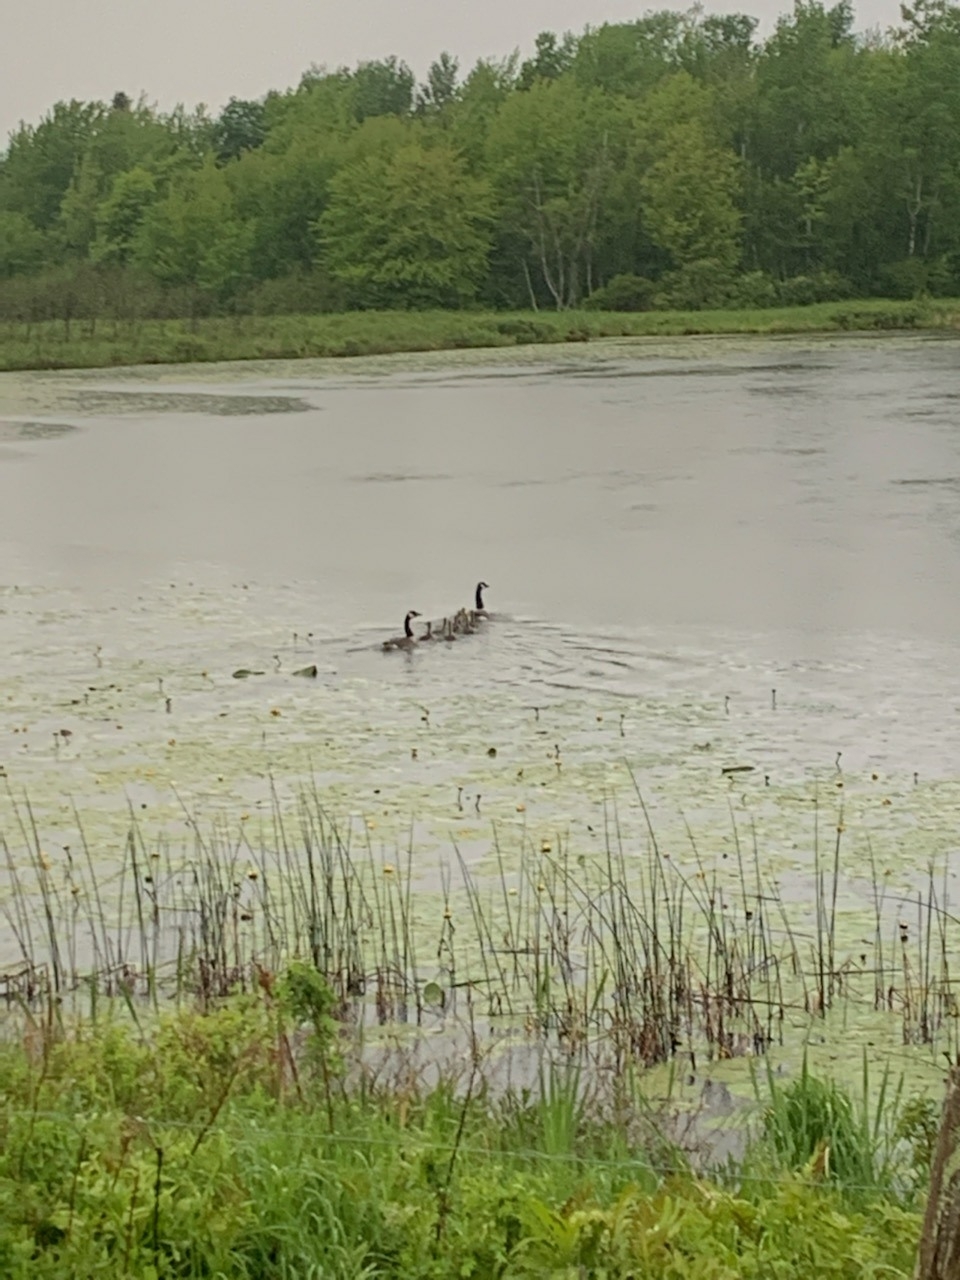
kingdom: Animalia
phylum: Chordata
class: Aves
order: Anseriformes
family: Anatidae
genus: Branta
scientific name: Branta canadensis
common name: Canada goose
